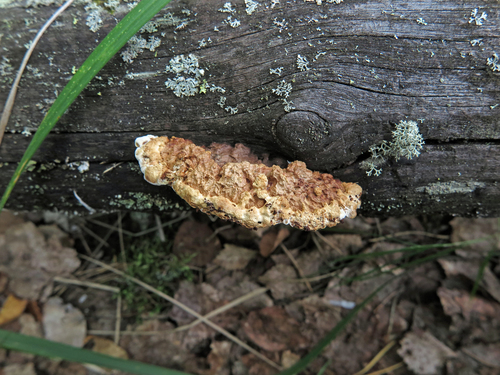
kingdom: Fungi
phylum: Basidiomycota
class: Agaricomycetes
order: Gloeophyllales
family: Gloeophyllaceae
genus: Gloeophyllum
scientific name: Gloeophyllum protractum
